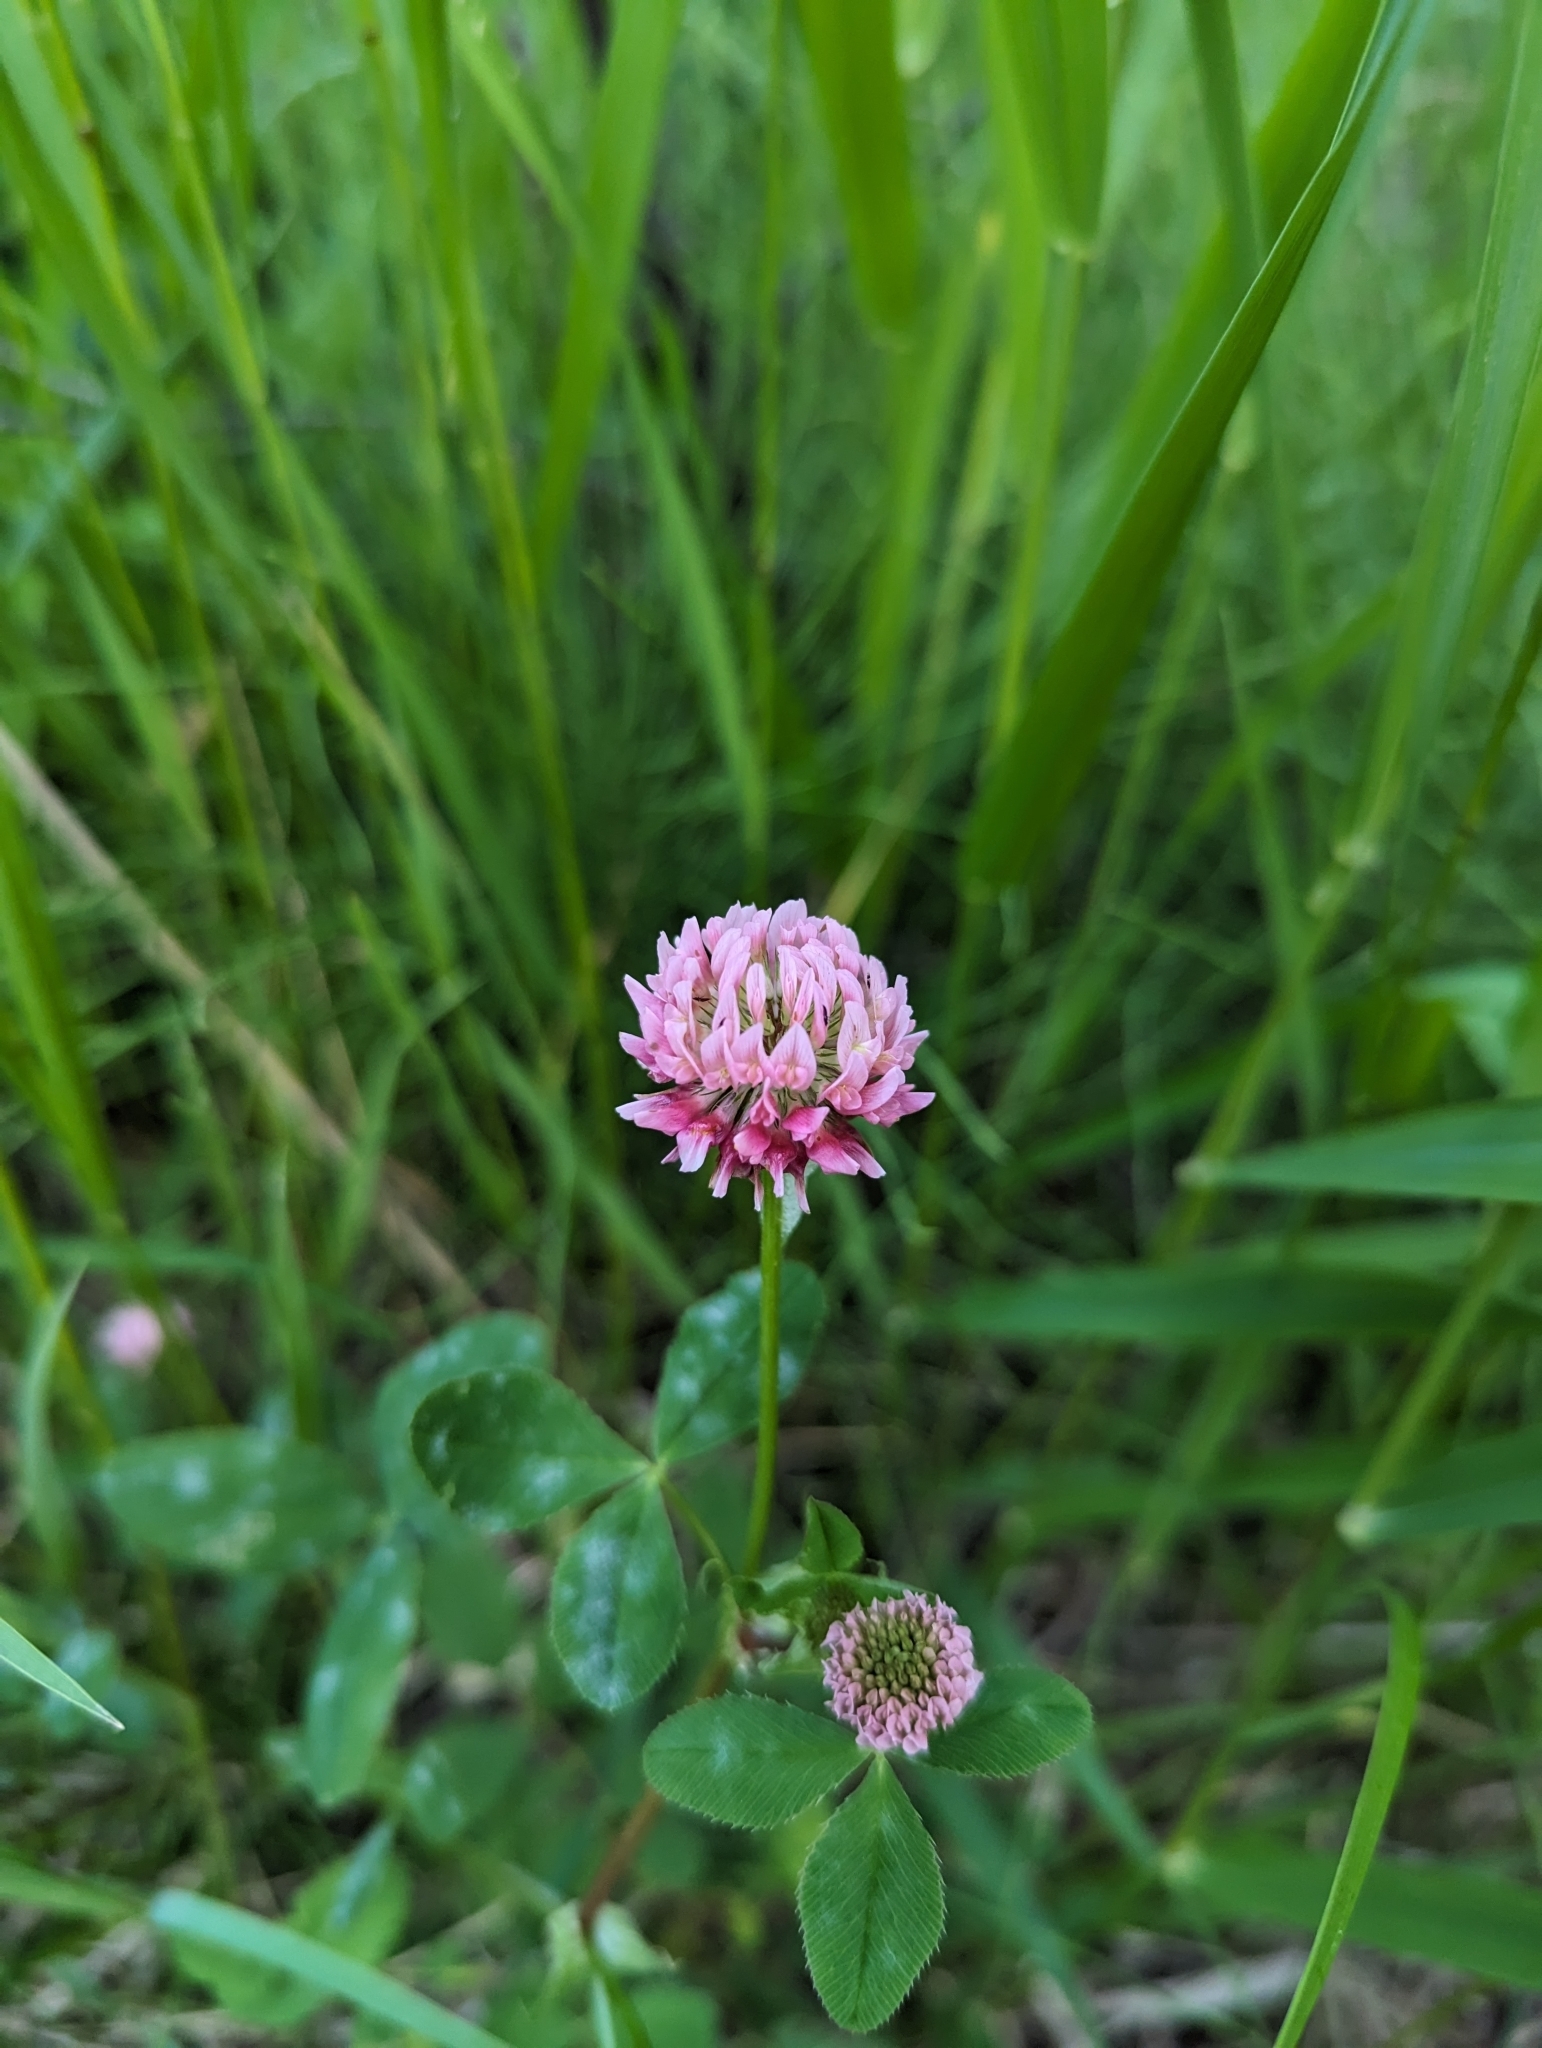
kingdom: Plantae
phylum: Tracheophyta
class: Magnoliopsida
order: Fabales
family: Fabaceae
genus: Trifolium
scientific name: Trifolium hybridum
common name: Alsike clover
